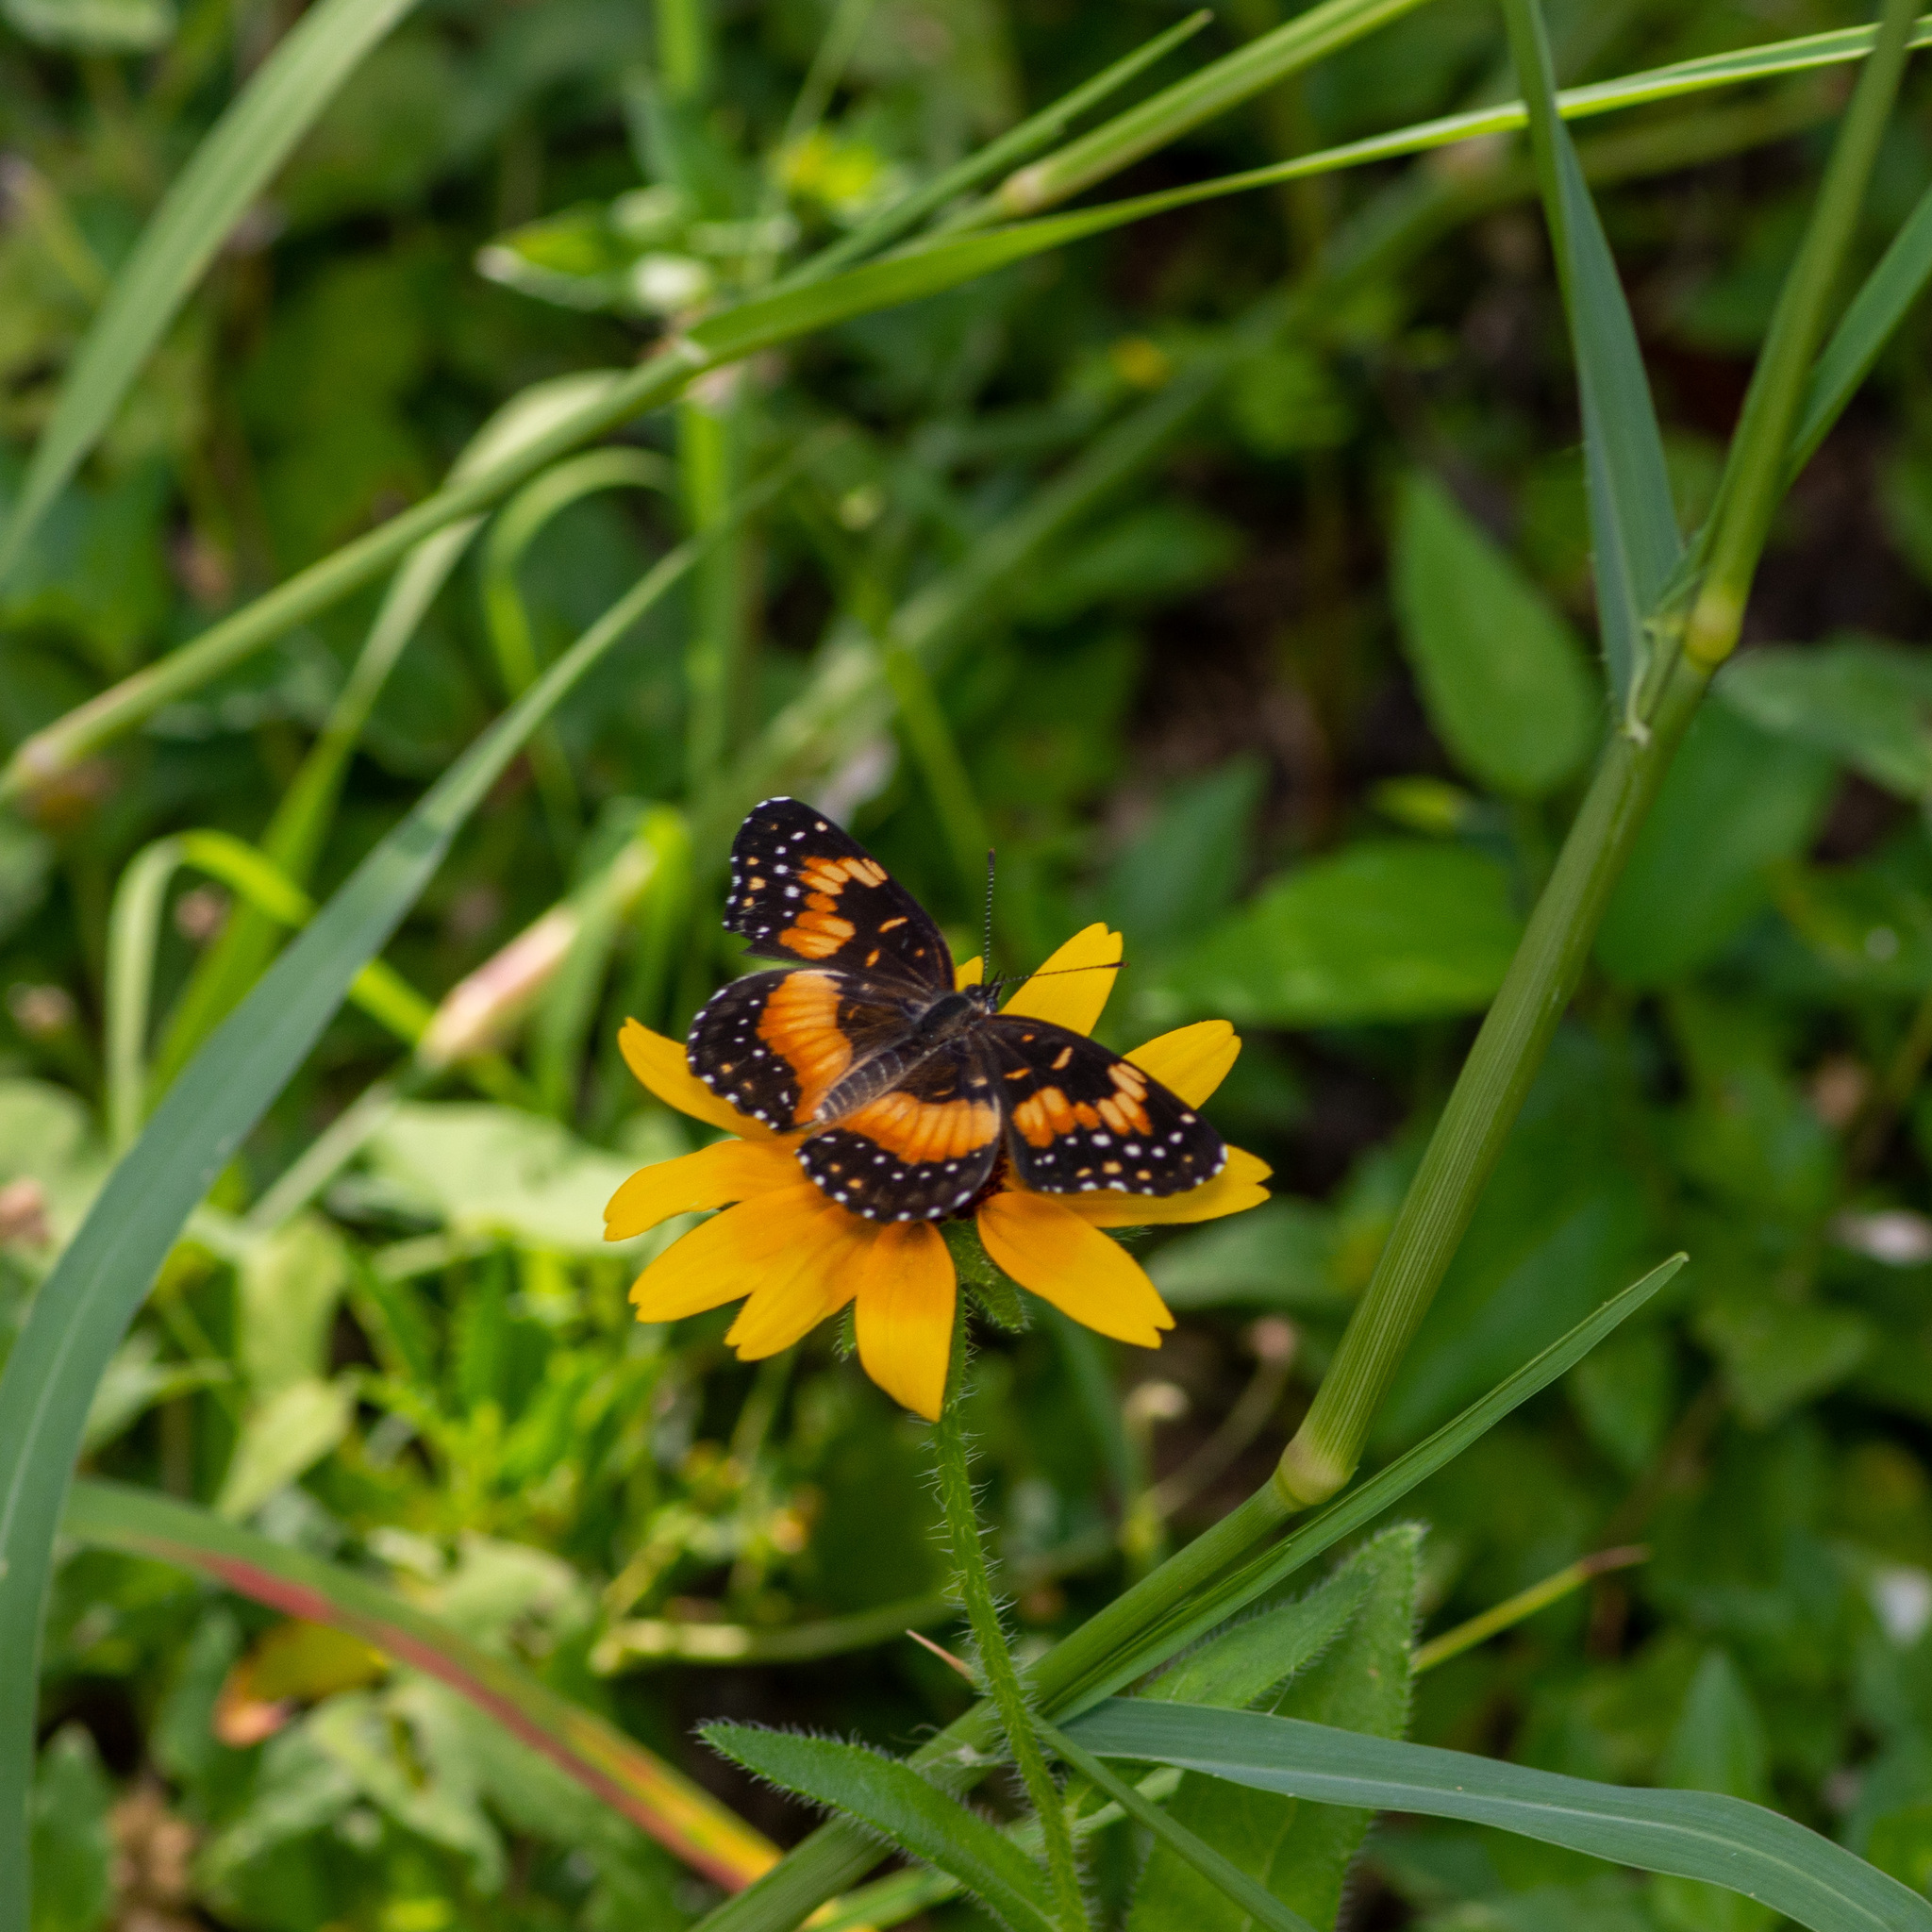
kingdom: Animalia
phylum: Arthropoda
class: Insecta
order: Lepidoptera
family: Nymphalidae
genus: Chlosyne
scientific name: Chlosyne lacinia
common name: Bordered patch
